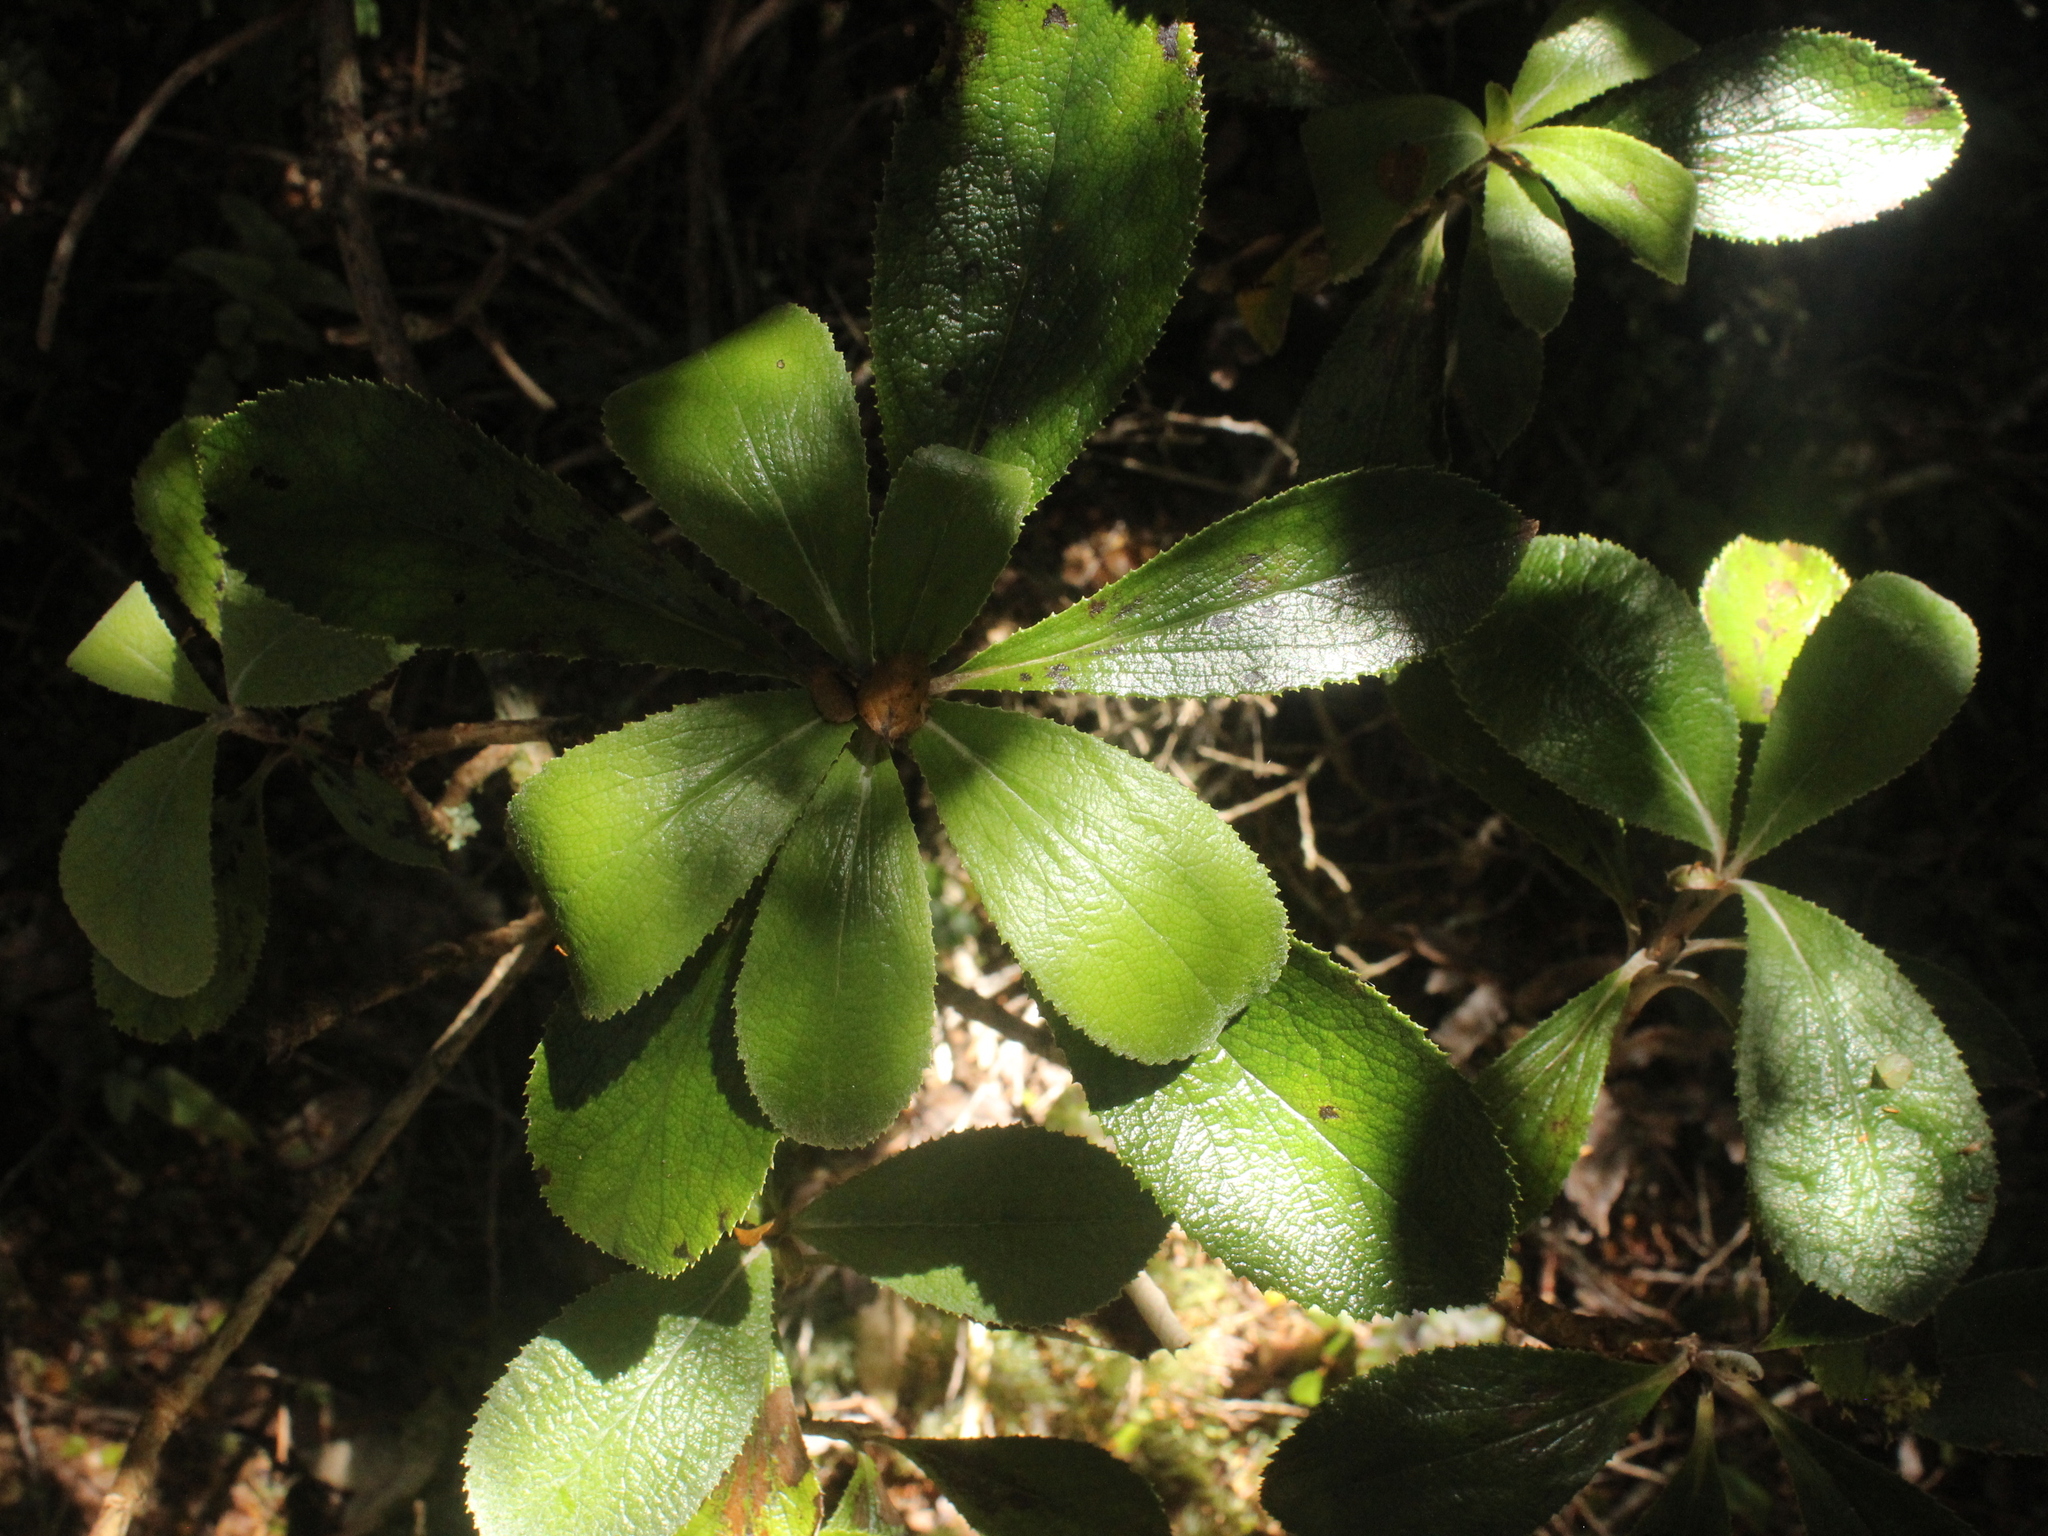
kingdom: Plantae
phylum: Tracheophyta
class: Magnoliopsida
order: Asterales
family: Asteraceae
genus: Macrolearia
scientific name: Macrolearia colensoi
